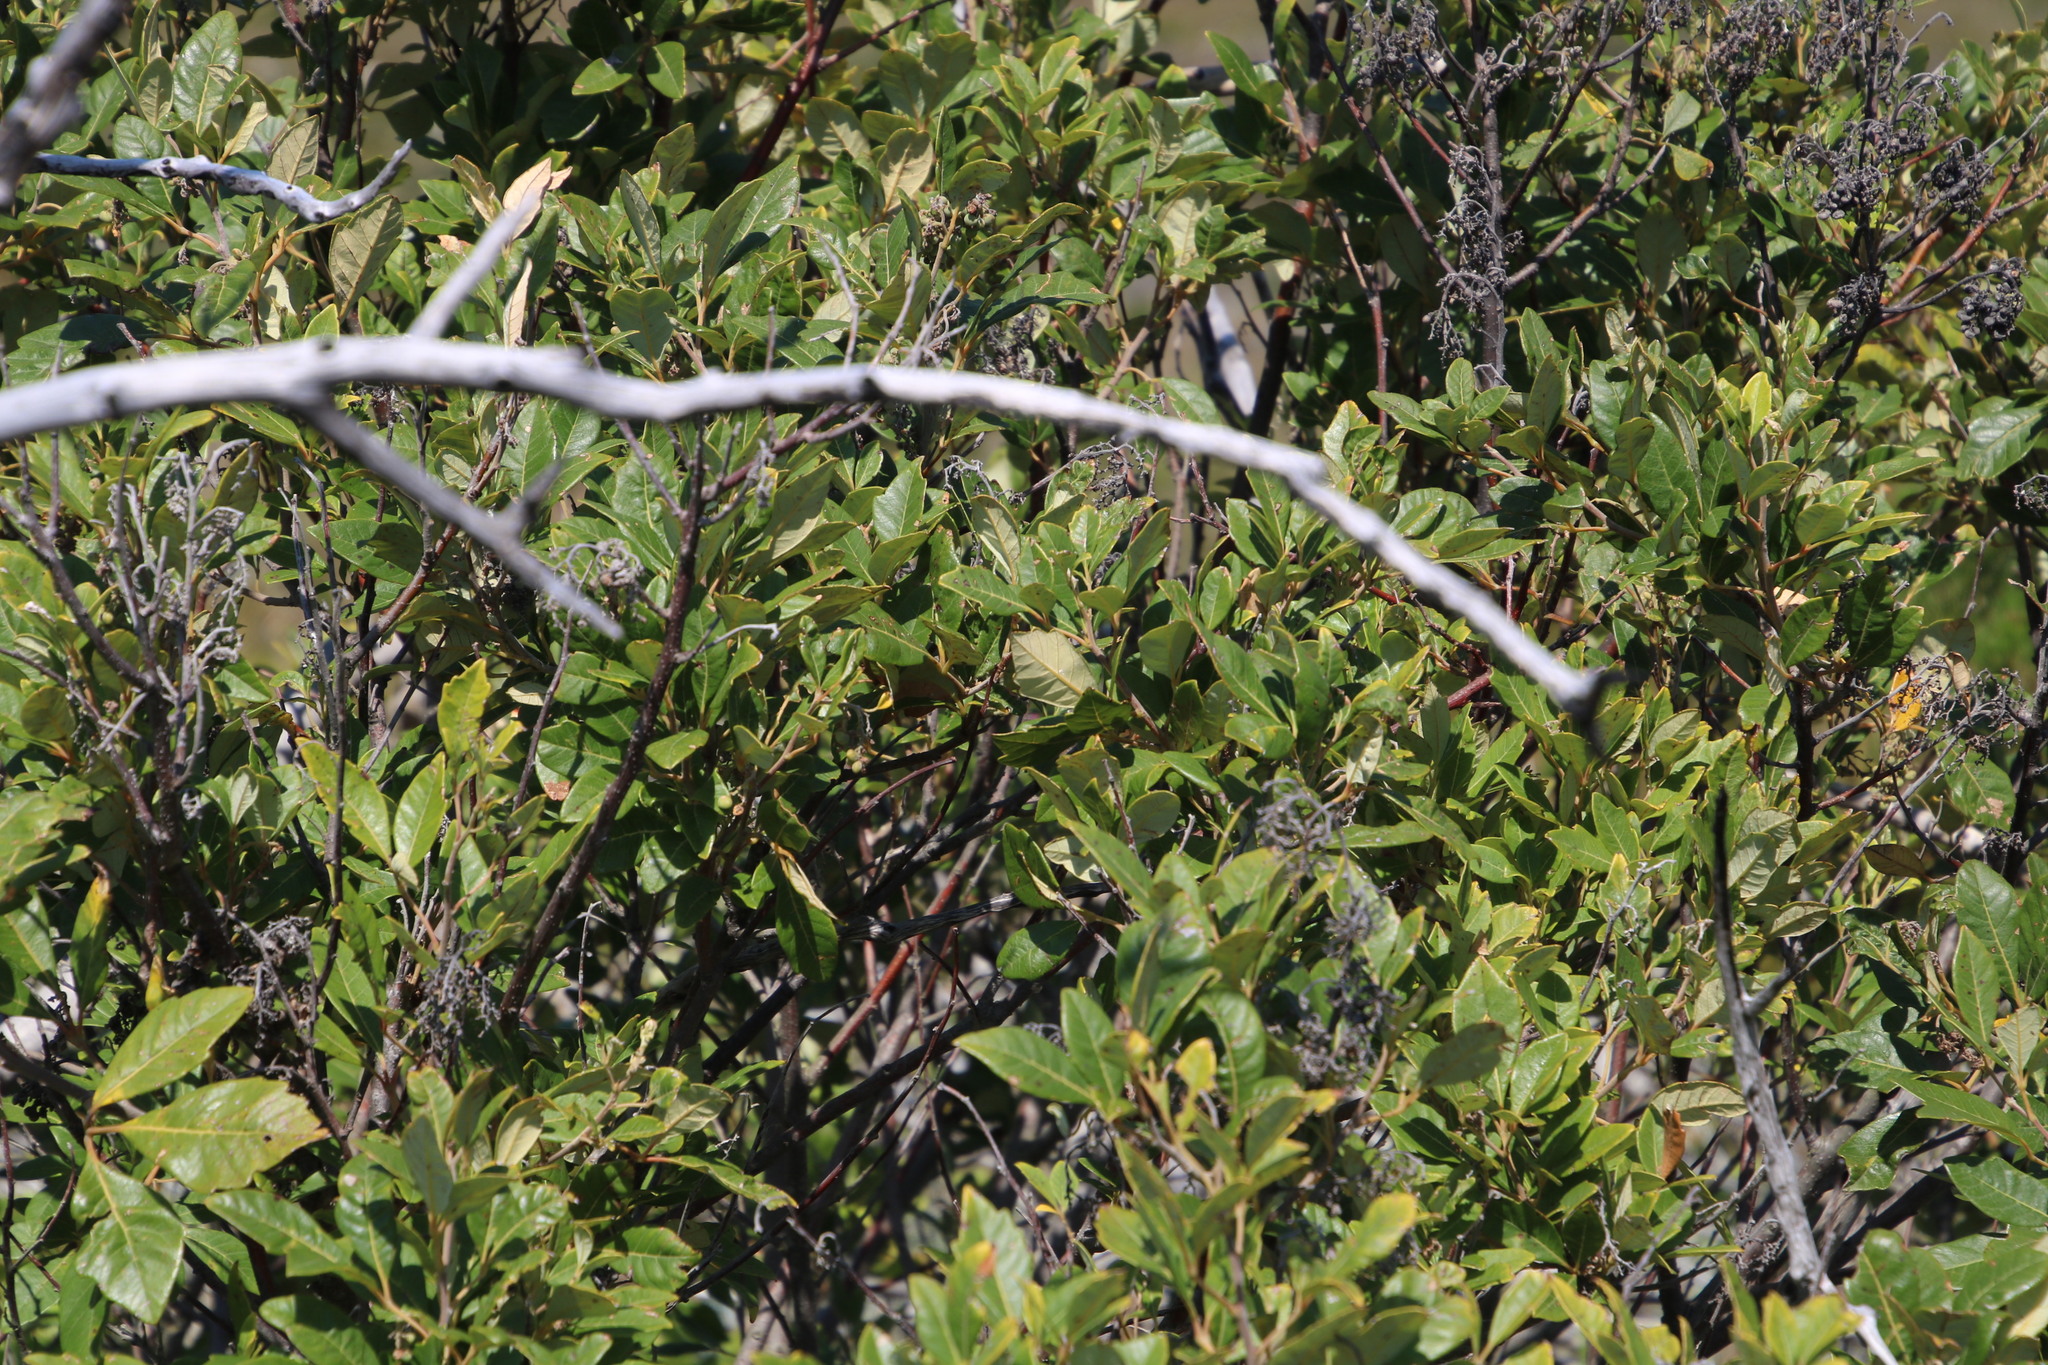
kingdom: Plantae
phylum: Tracheophyta
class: Magnoliopsida
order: Sapindales
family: Anacardiaceae
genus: Searsia
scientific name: Searsia tomentosa
